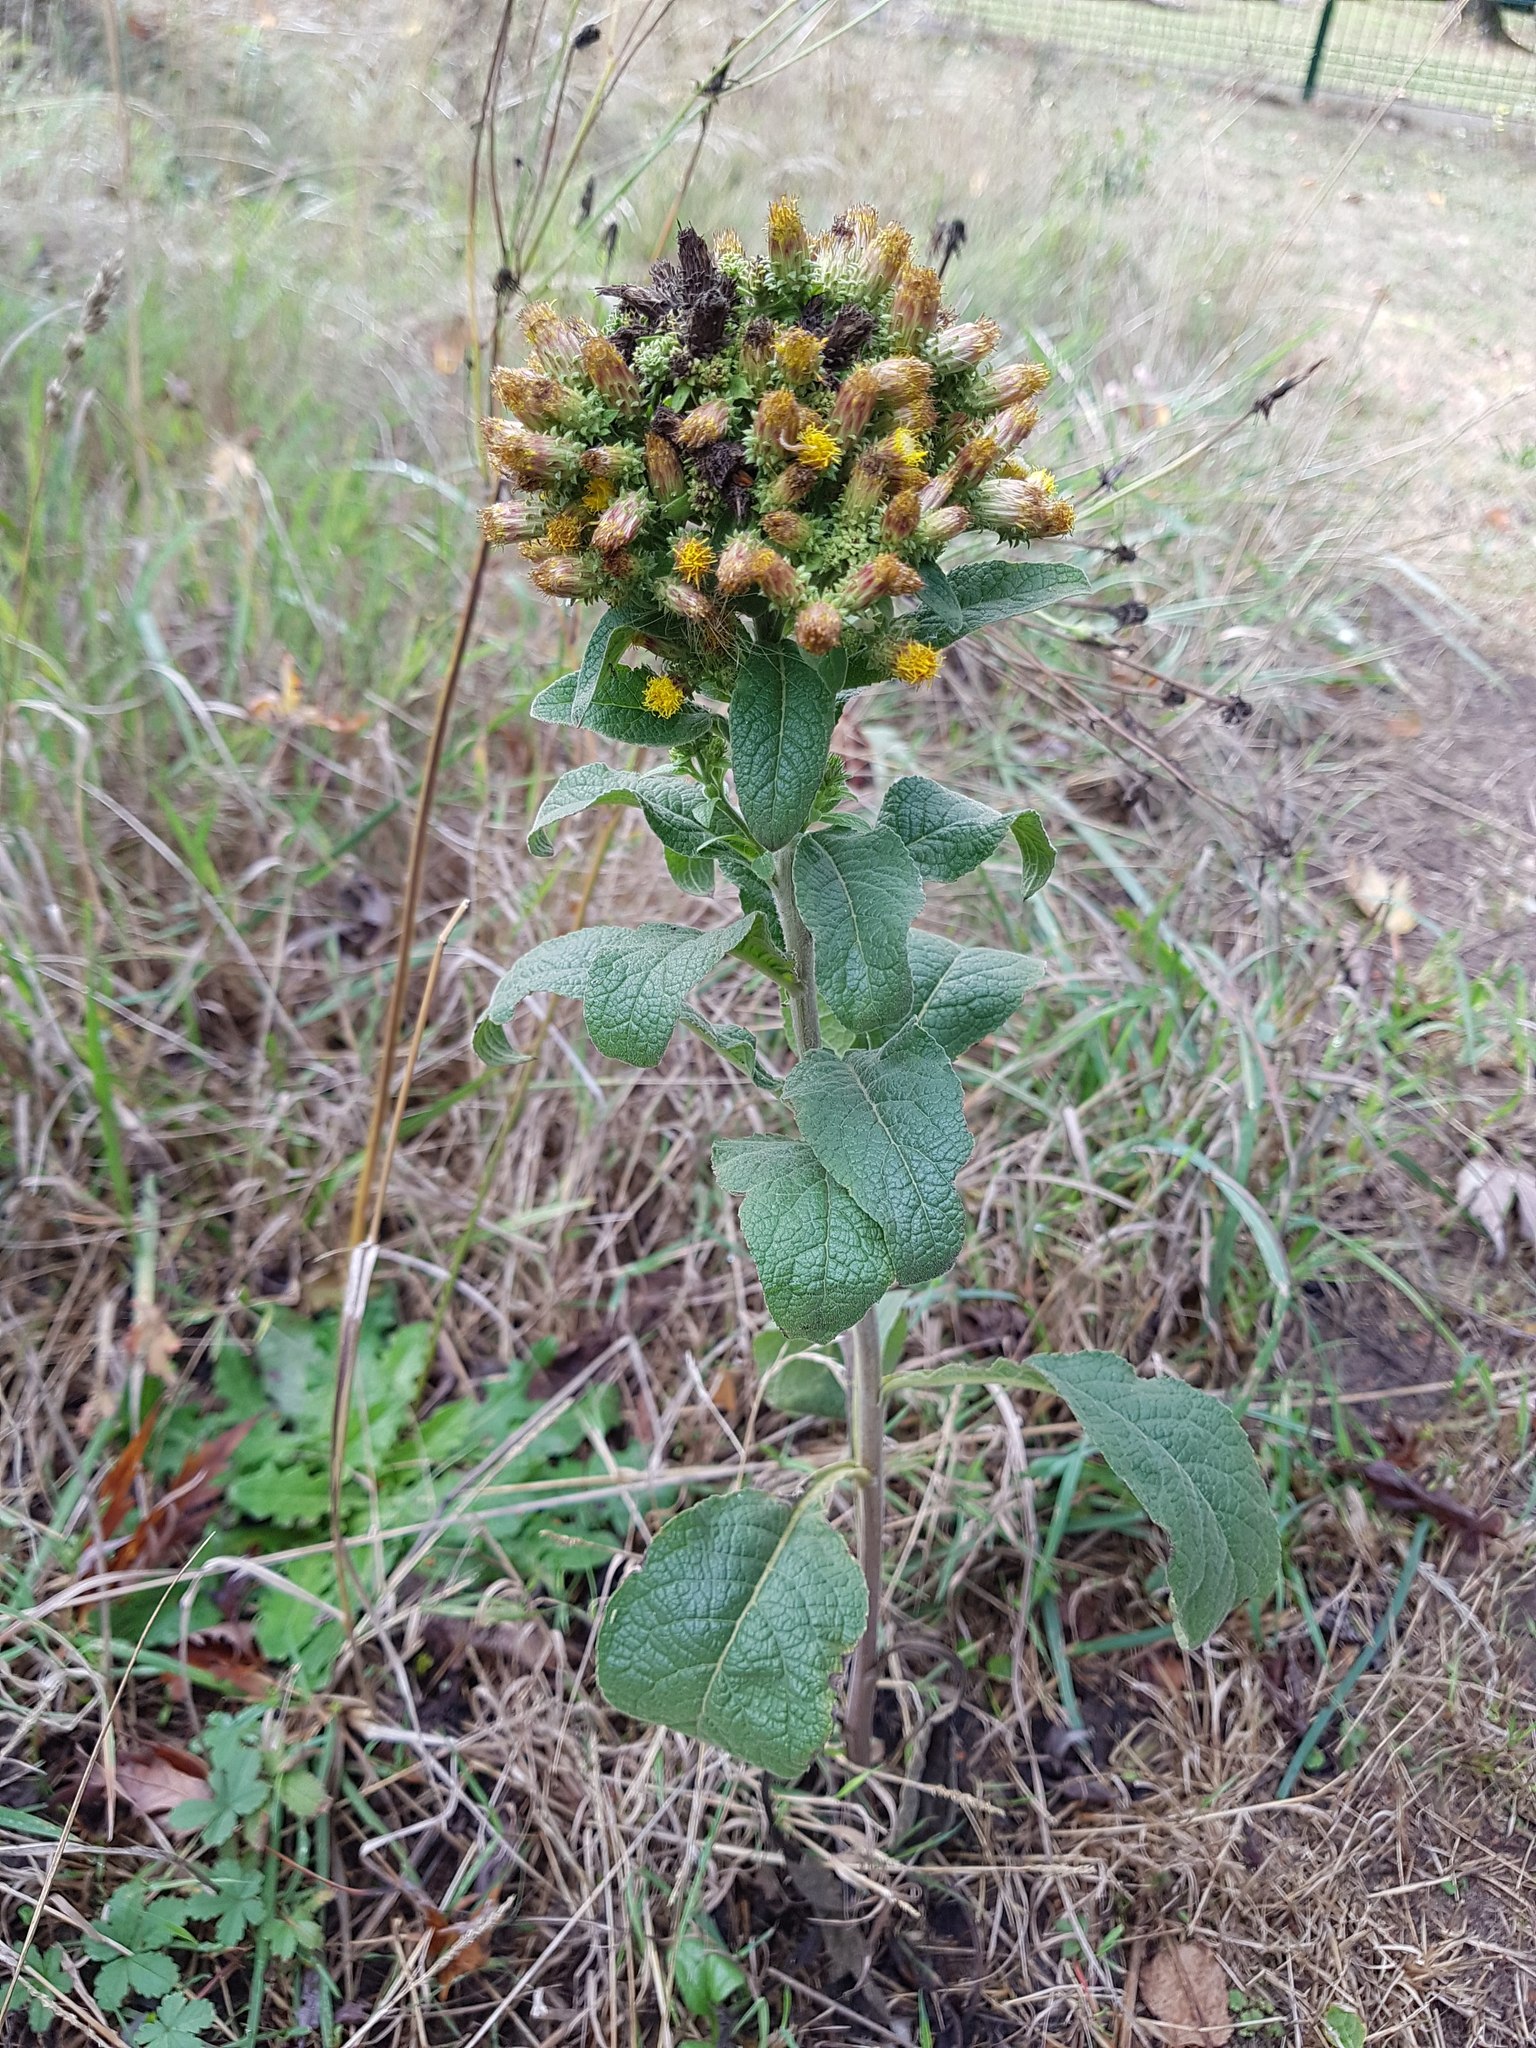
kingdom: Plantae
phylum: Tracheophyta
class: Magnoliopsida
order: Asterales
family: Asteraceae
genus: Pentanema
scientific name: Pentanema squarrosum
